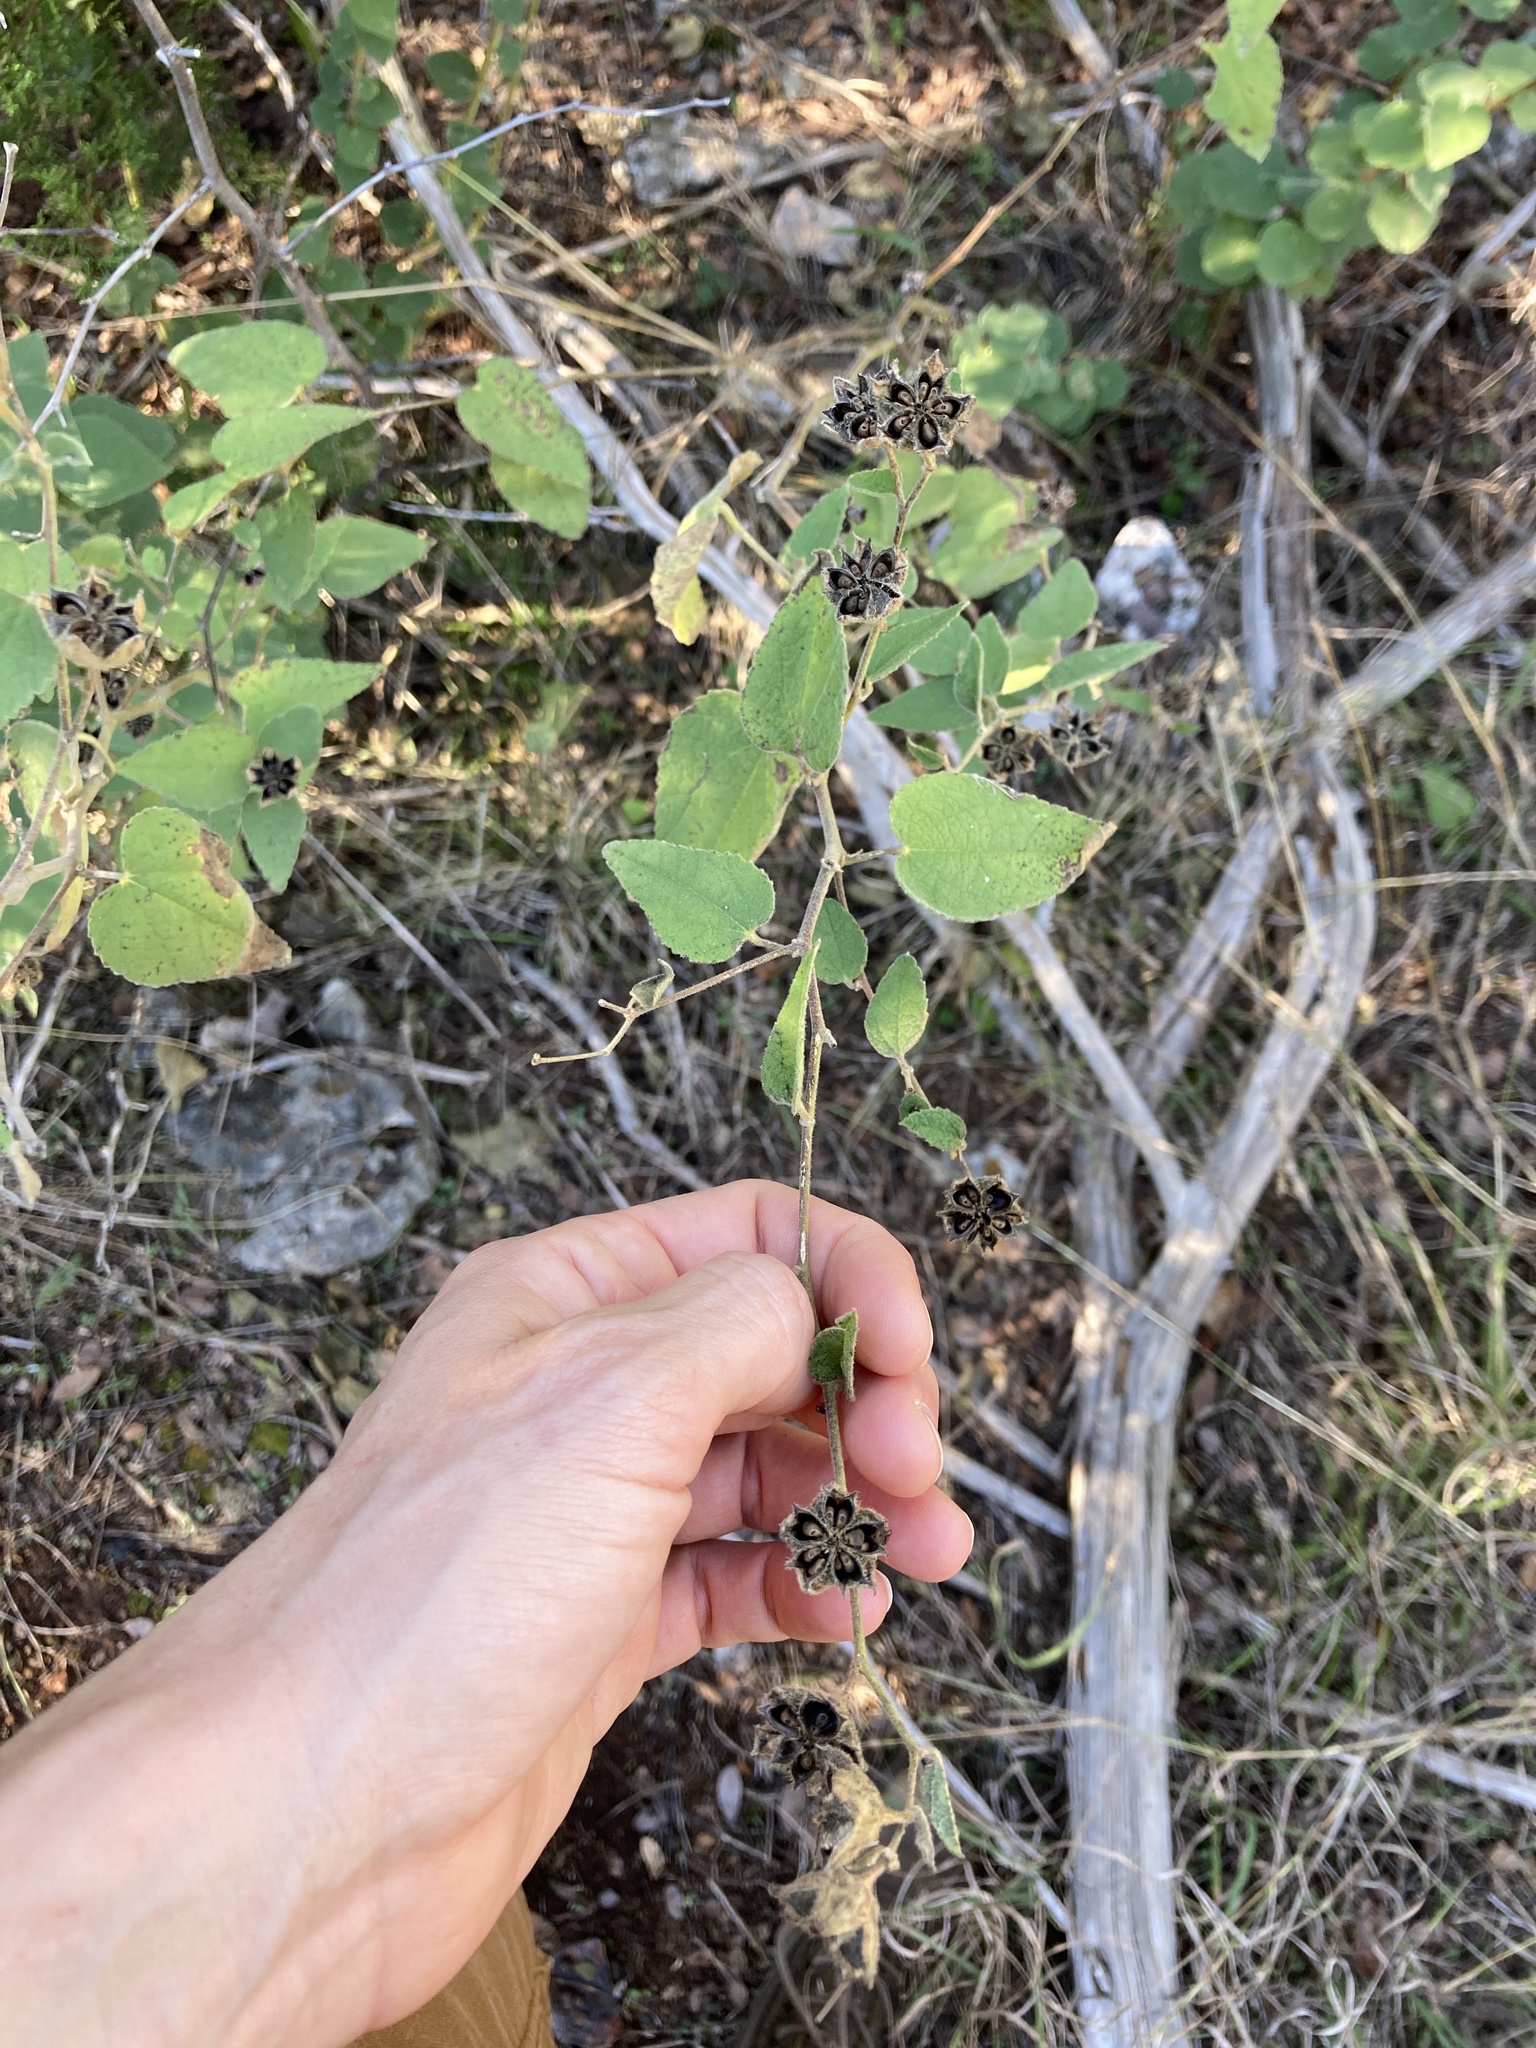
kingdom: Plantae
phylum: Tracheophyta
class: Magnoliopsida
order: Malvales
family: Malvaceae
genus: Allowissadula
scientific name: Allowissadula holosericea
